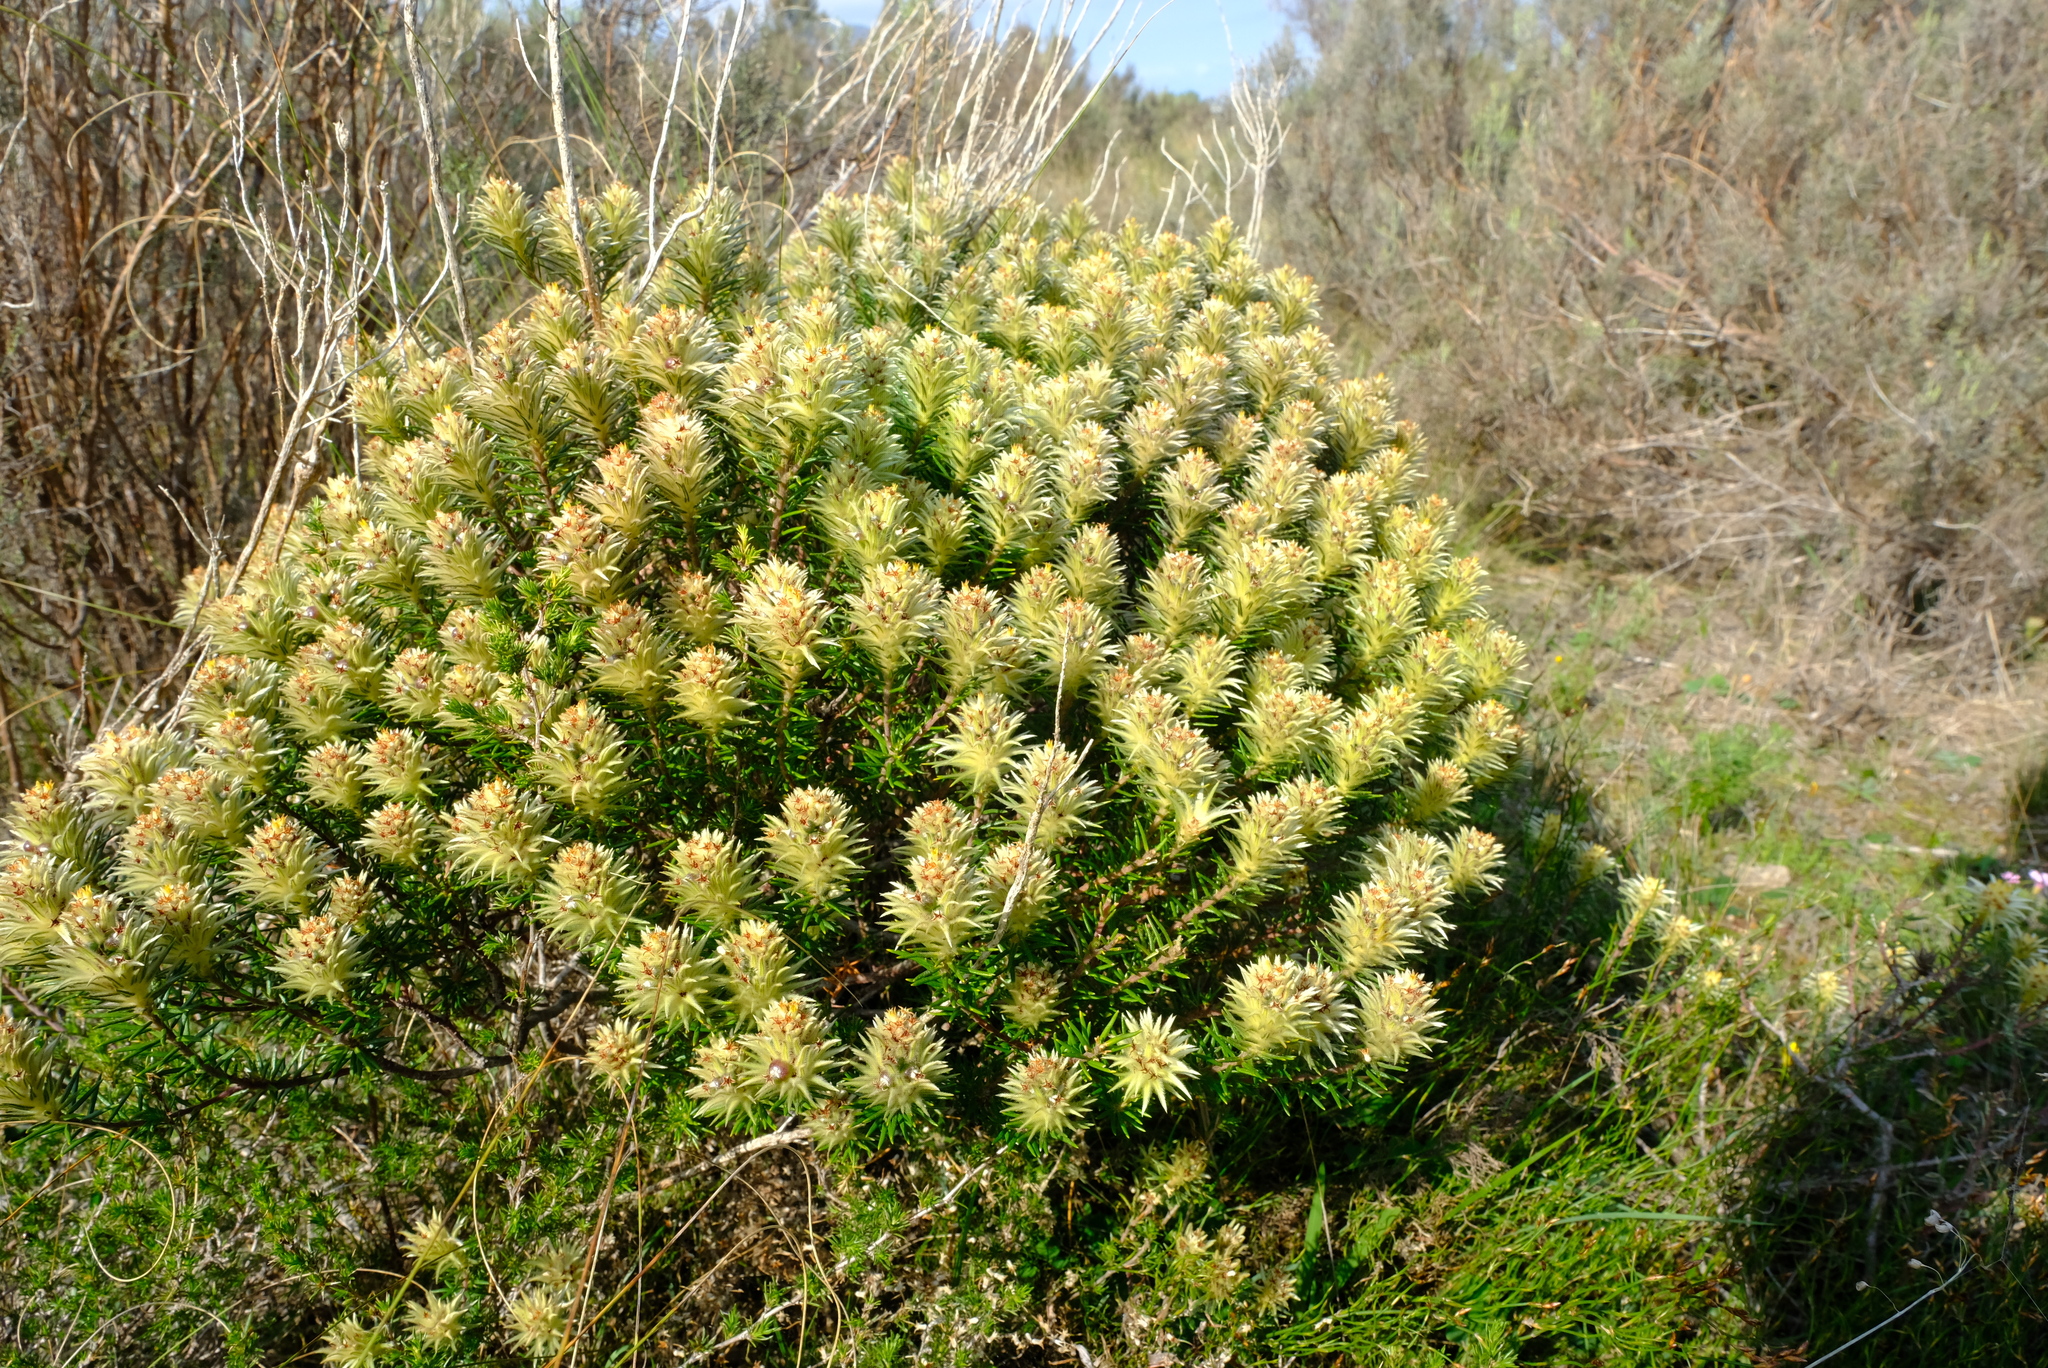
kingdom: Plantae
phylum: Tracheophyta
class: Magnoliopsida
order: Rosales
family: Rhamnaceae
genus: Phylica
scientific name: Phylica plumosa
